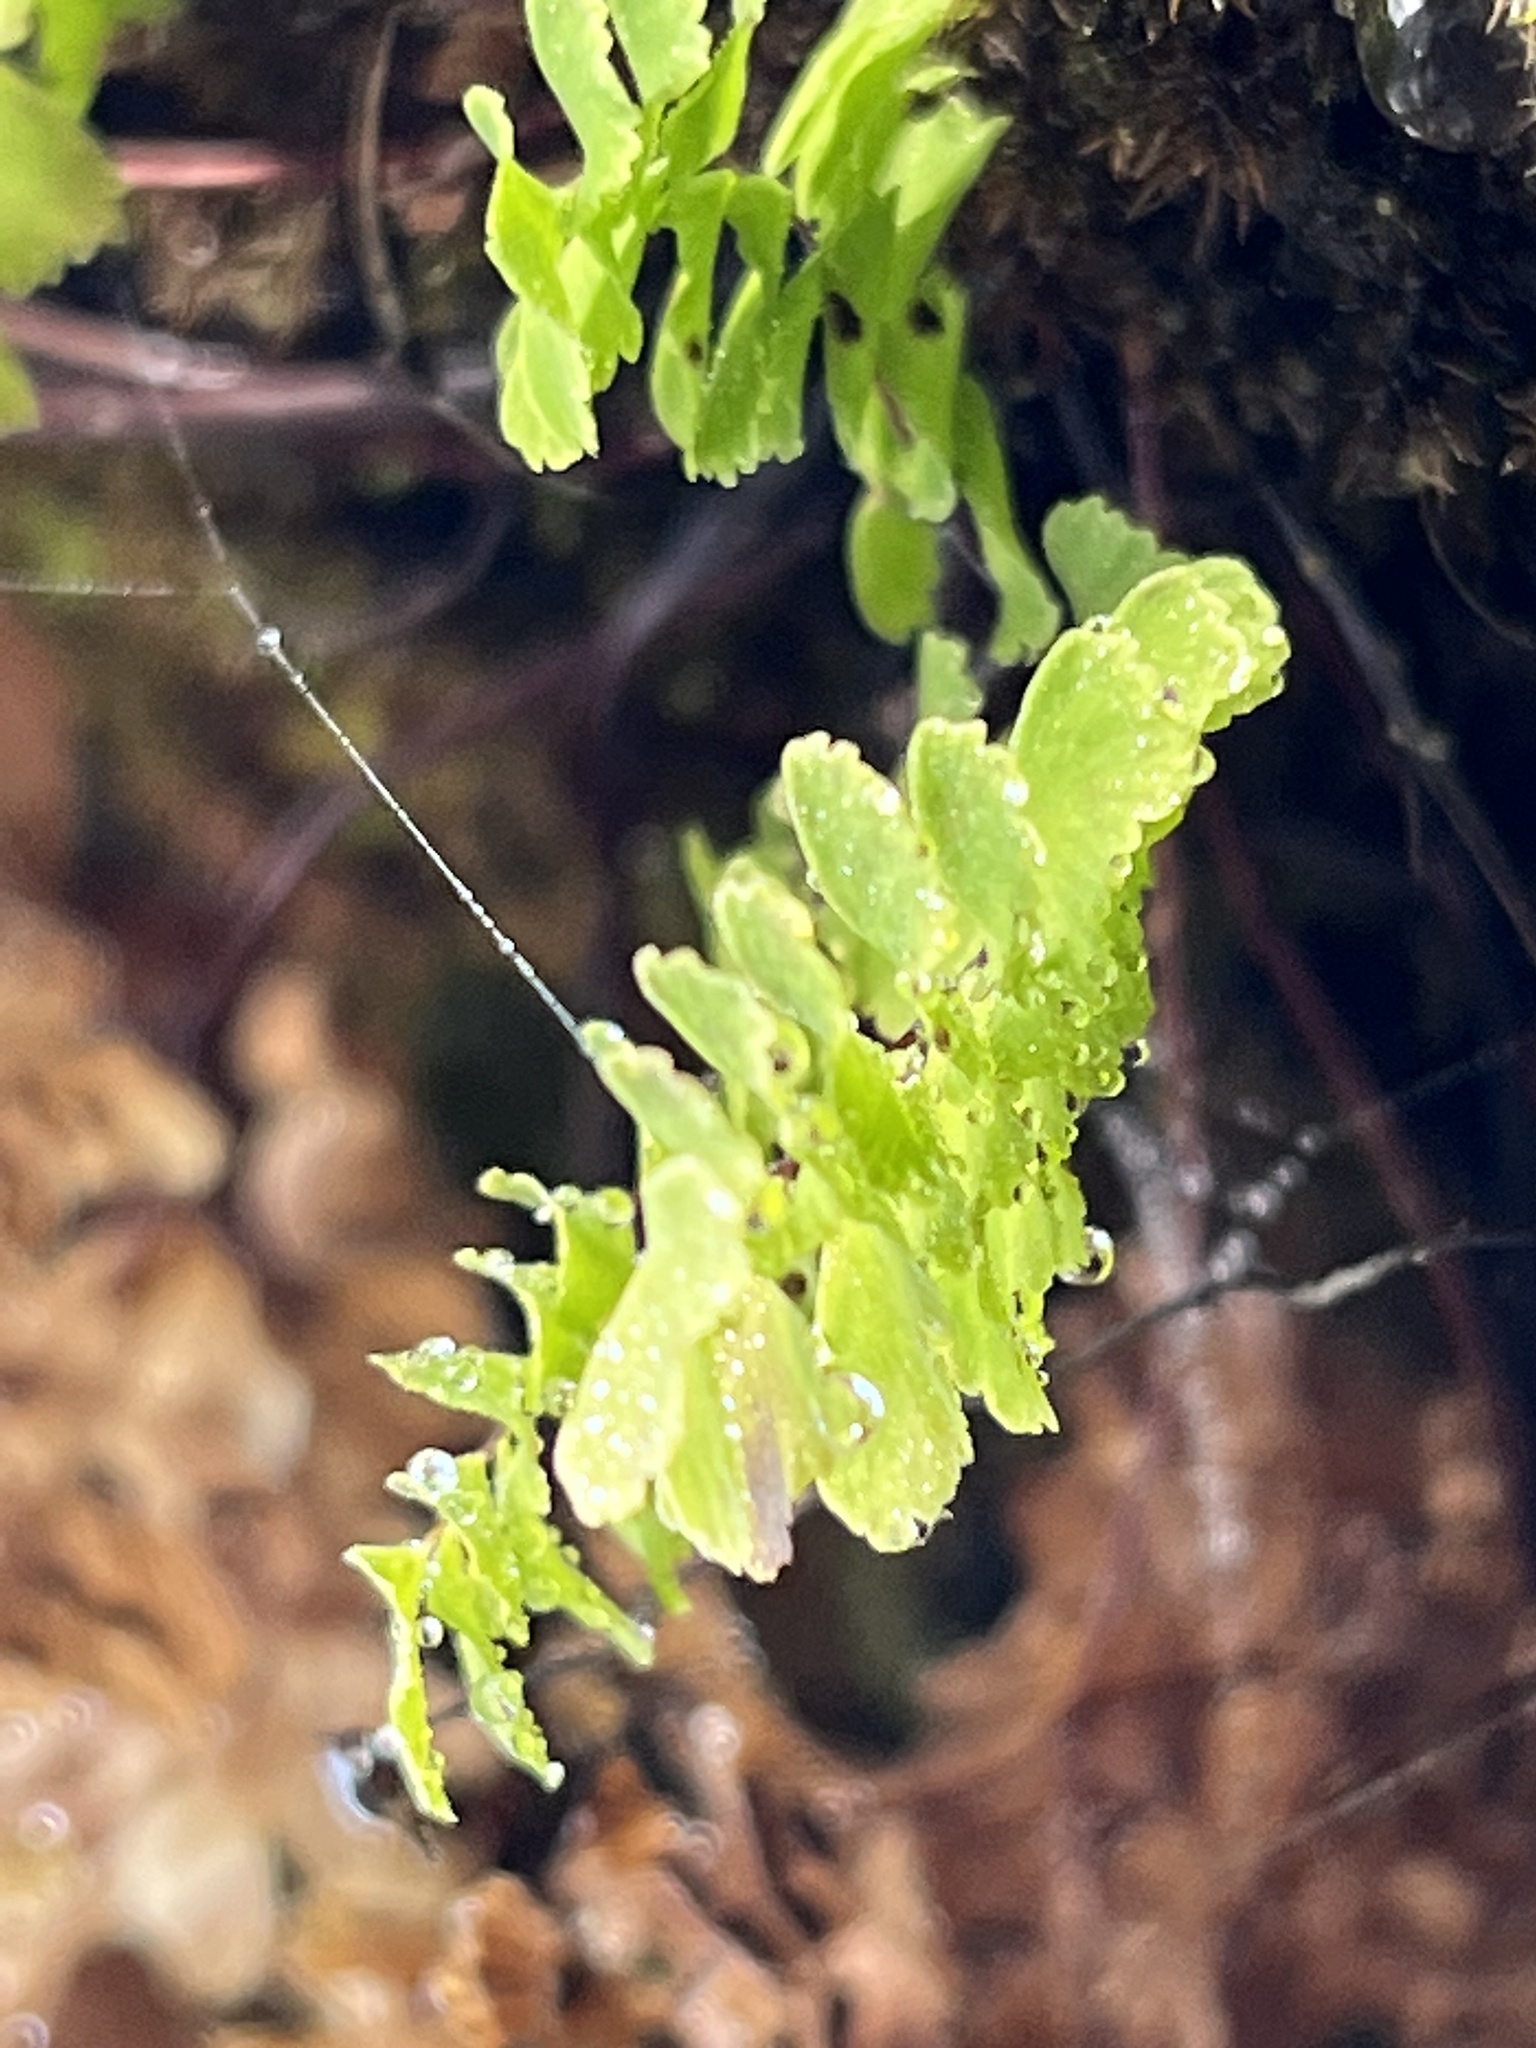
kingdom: Plantae
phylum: Tracheophyta
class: Polypodiopsida
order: Polypodiales
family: Pteridaceae
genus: Adiantum
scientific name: Adiantum aleuticum
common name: Aleutian maidenhair fern
